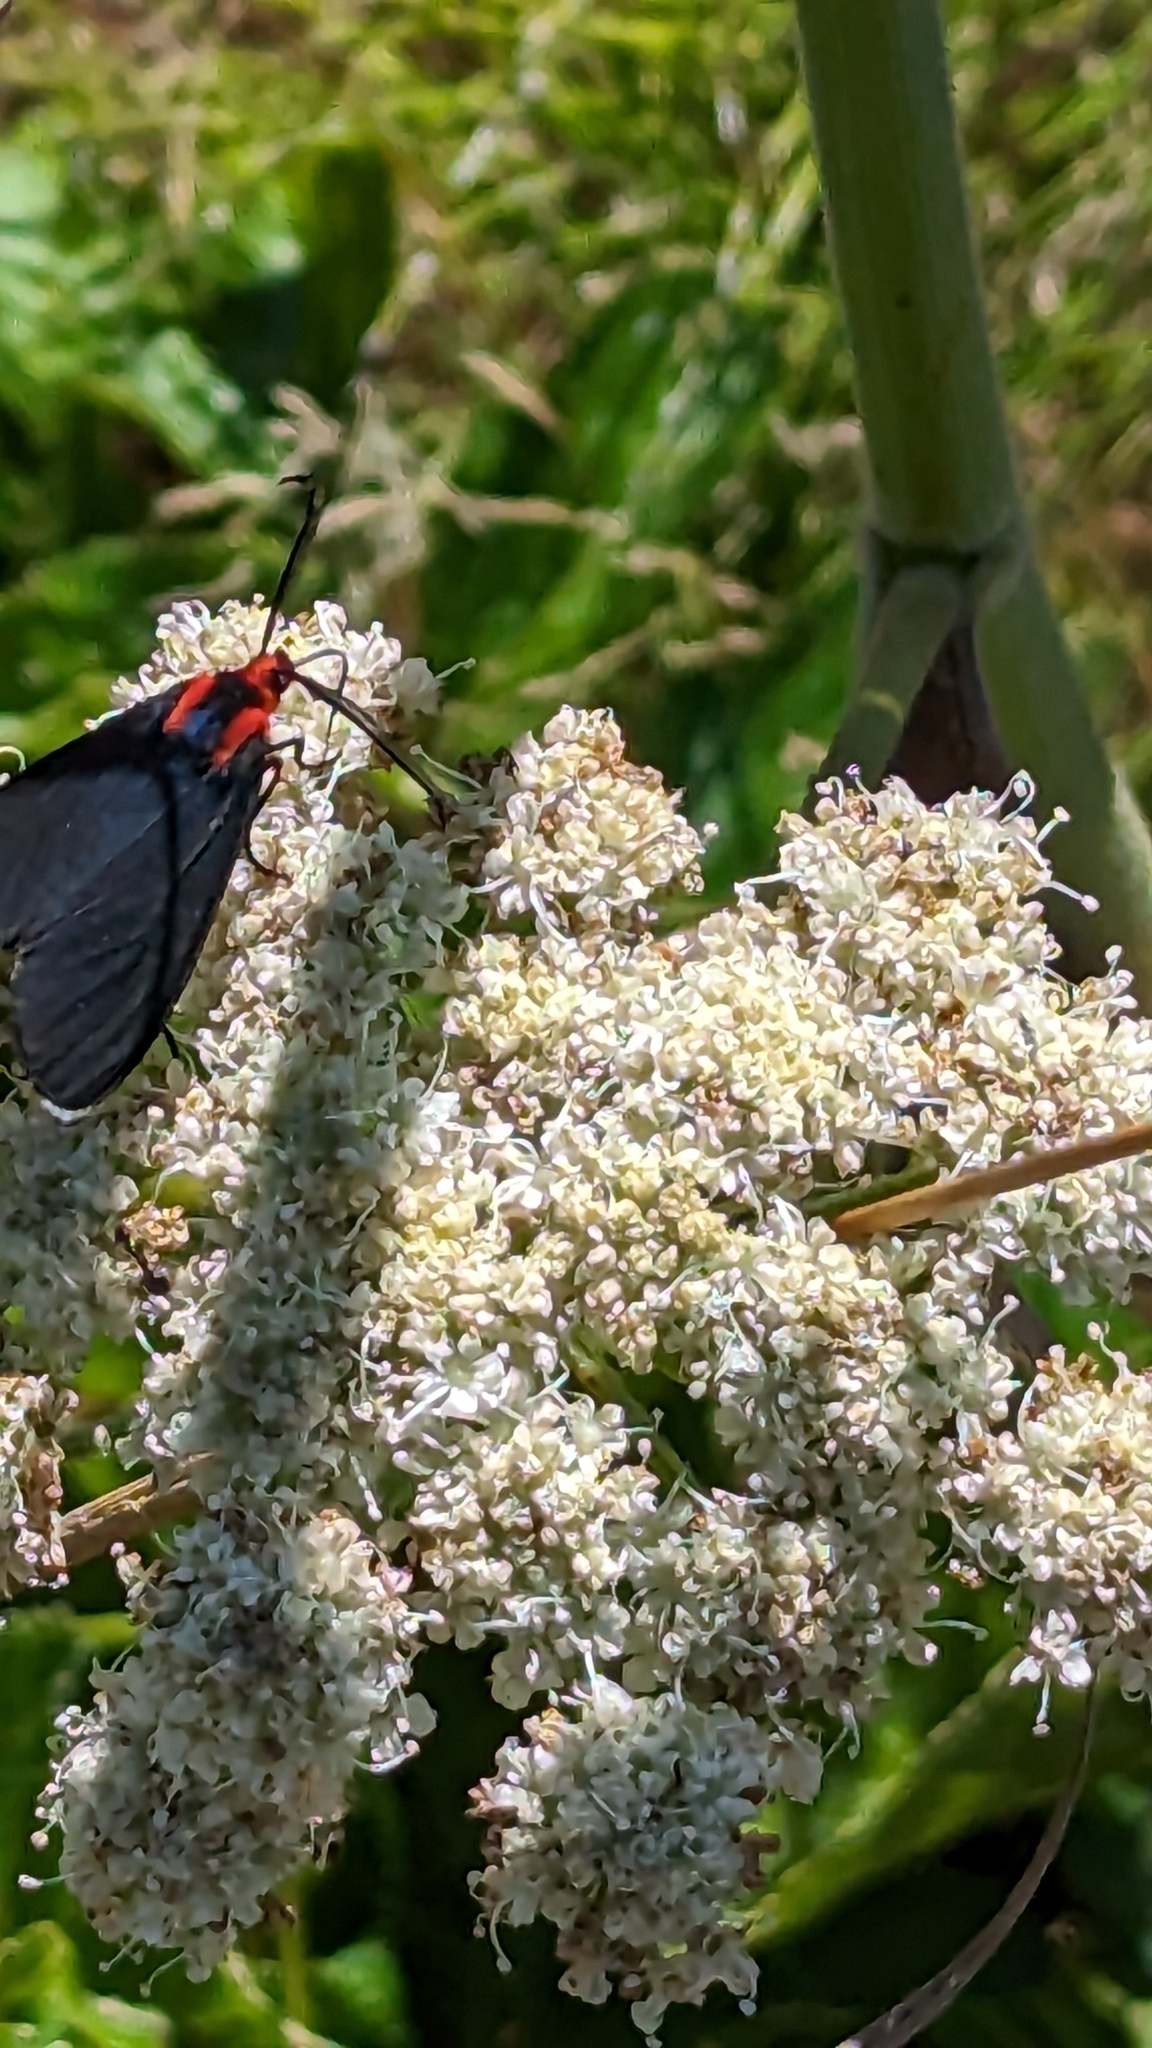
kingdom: Animalia
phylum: Arthropoda
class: Insecta
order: Lepidoptera
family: Erebidae
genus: Ctenucha
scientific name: Ctenucha rubroscapus
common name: Red-shouldered ctenucha
